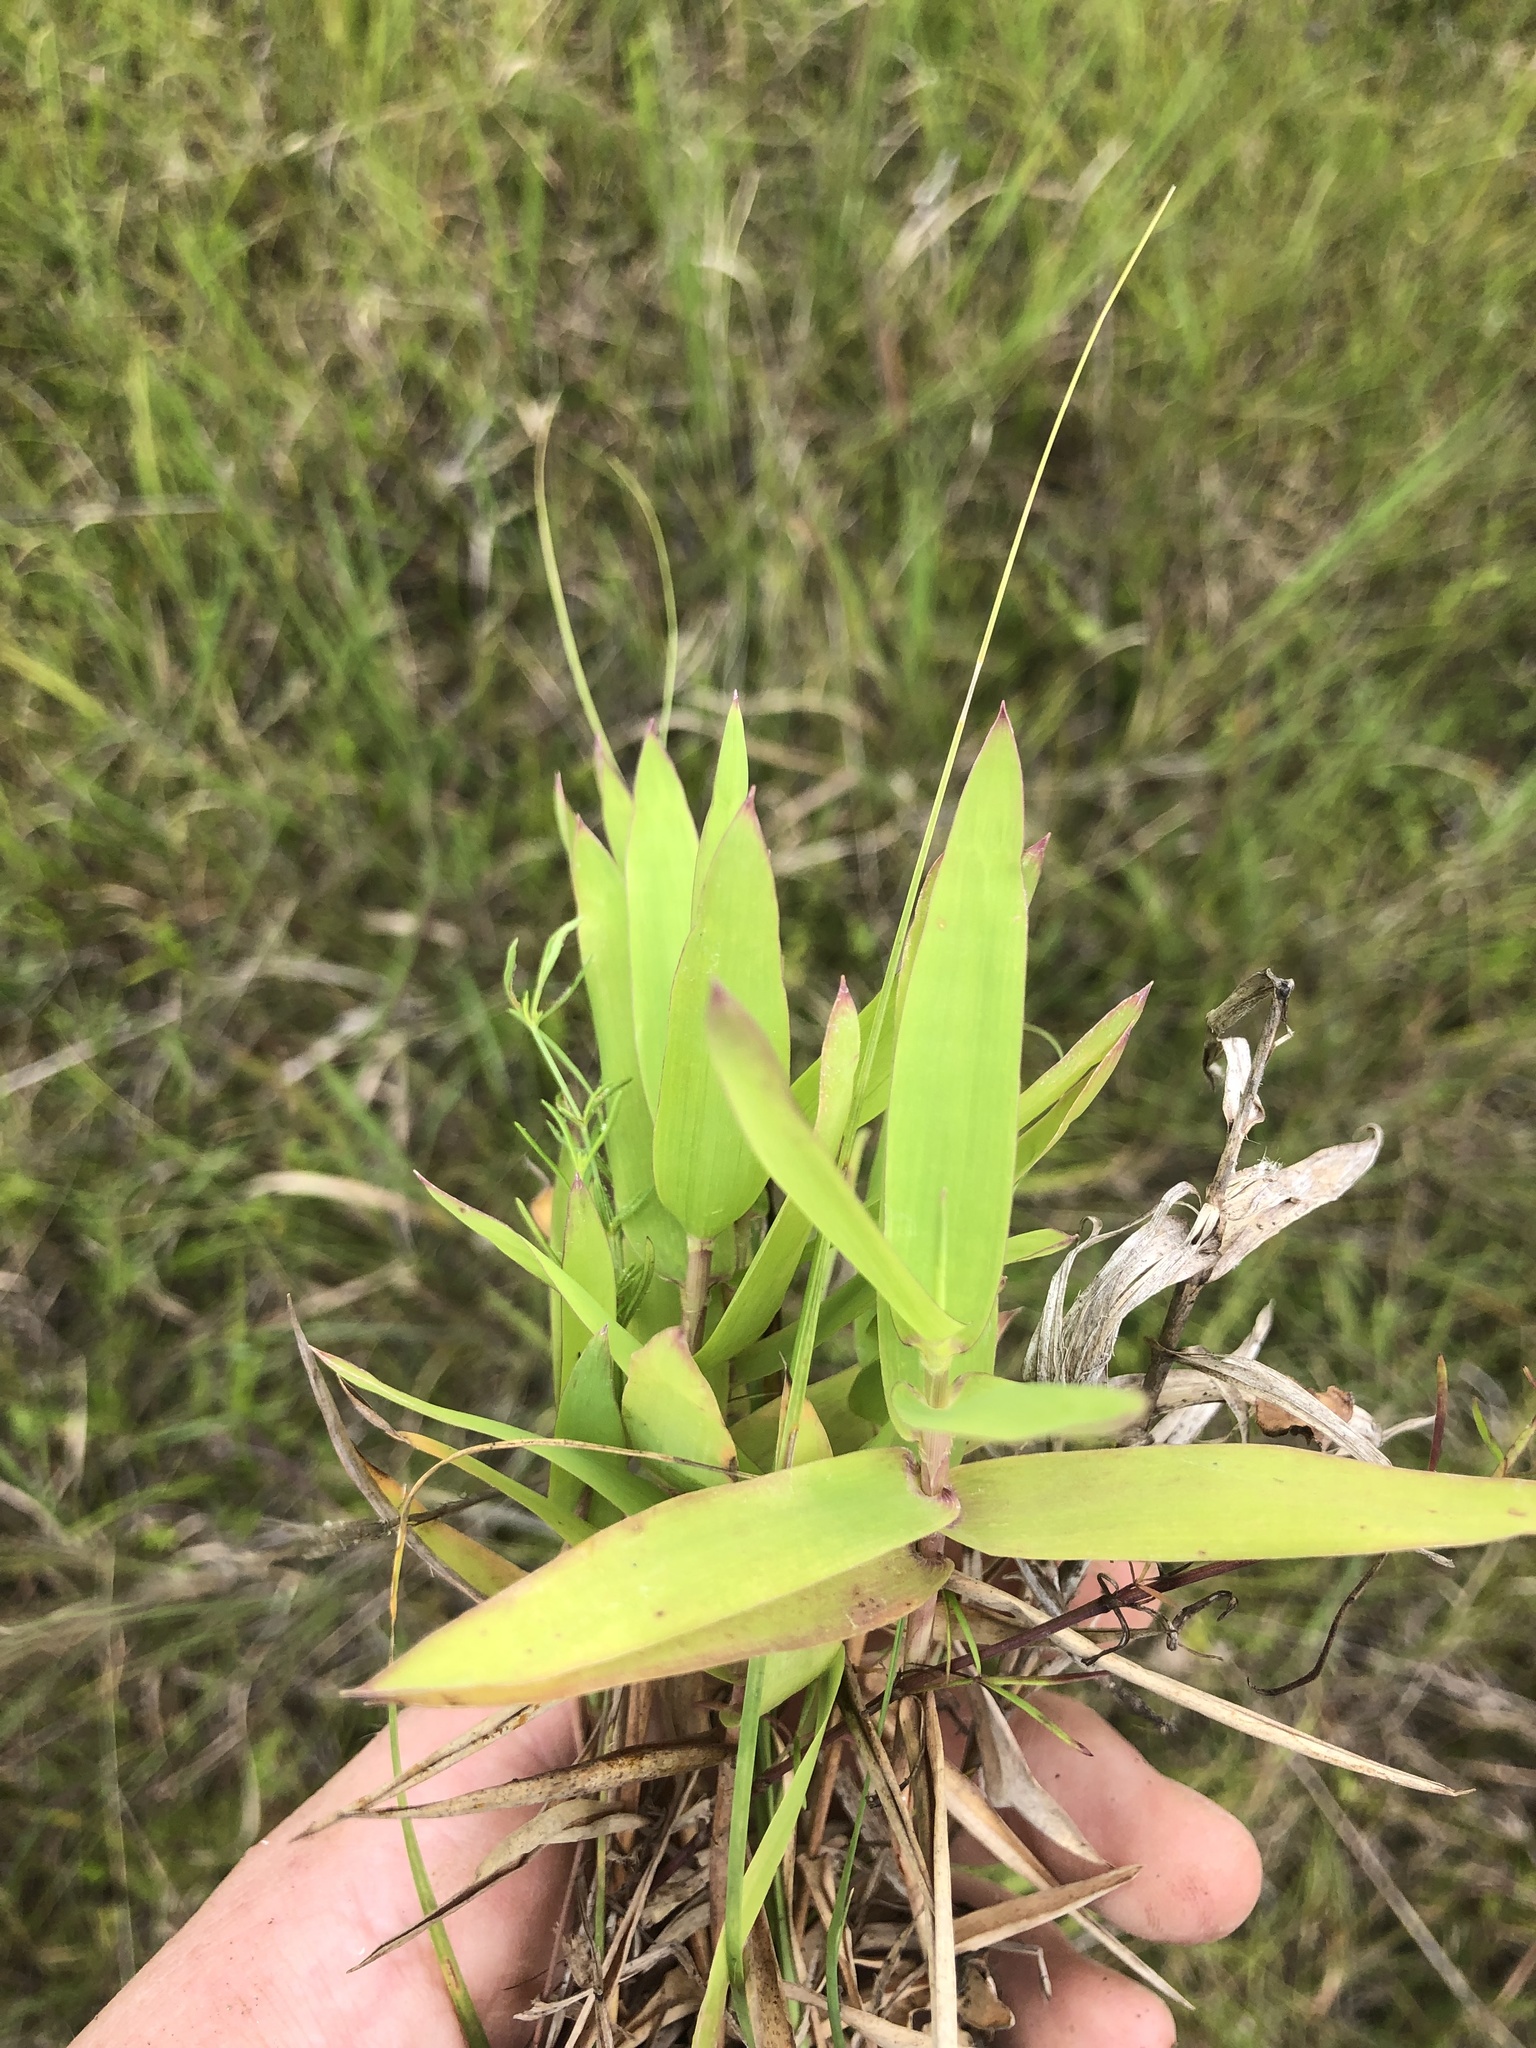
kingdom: Plantae
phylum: Tracheophyta
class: Liliopsida
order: Poales
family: Poaceae
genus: Gymnopogon
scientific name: Gymnopogon ambiguus
